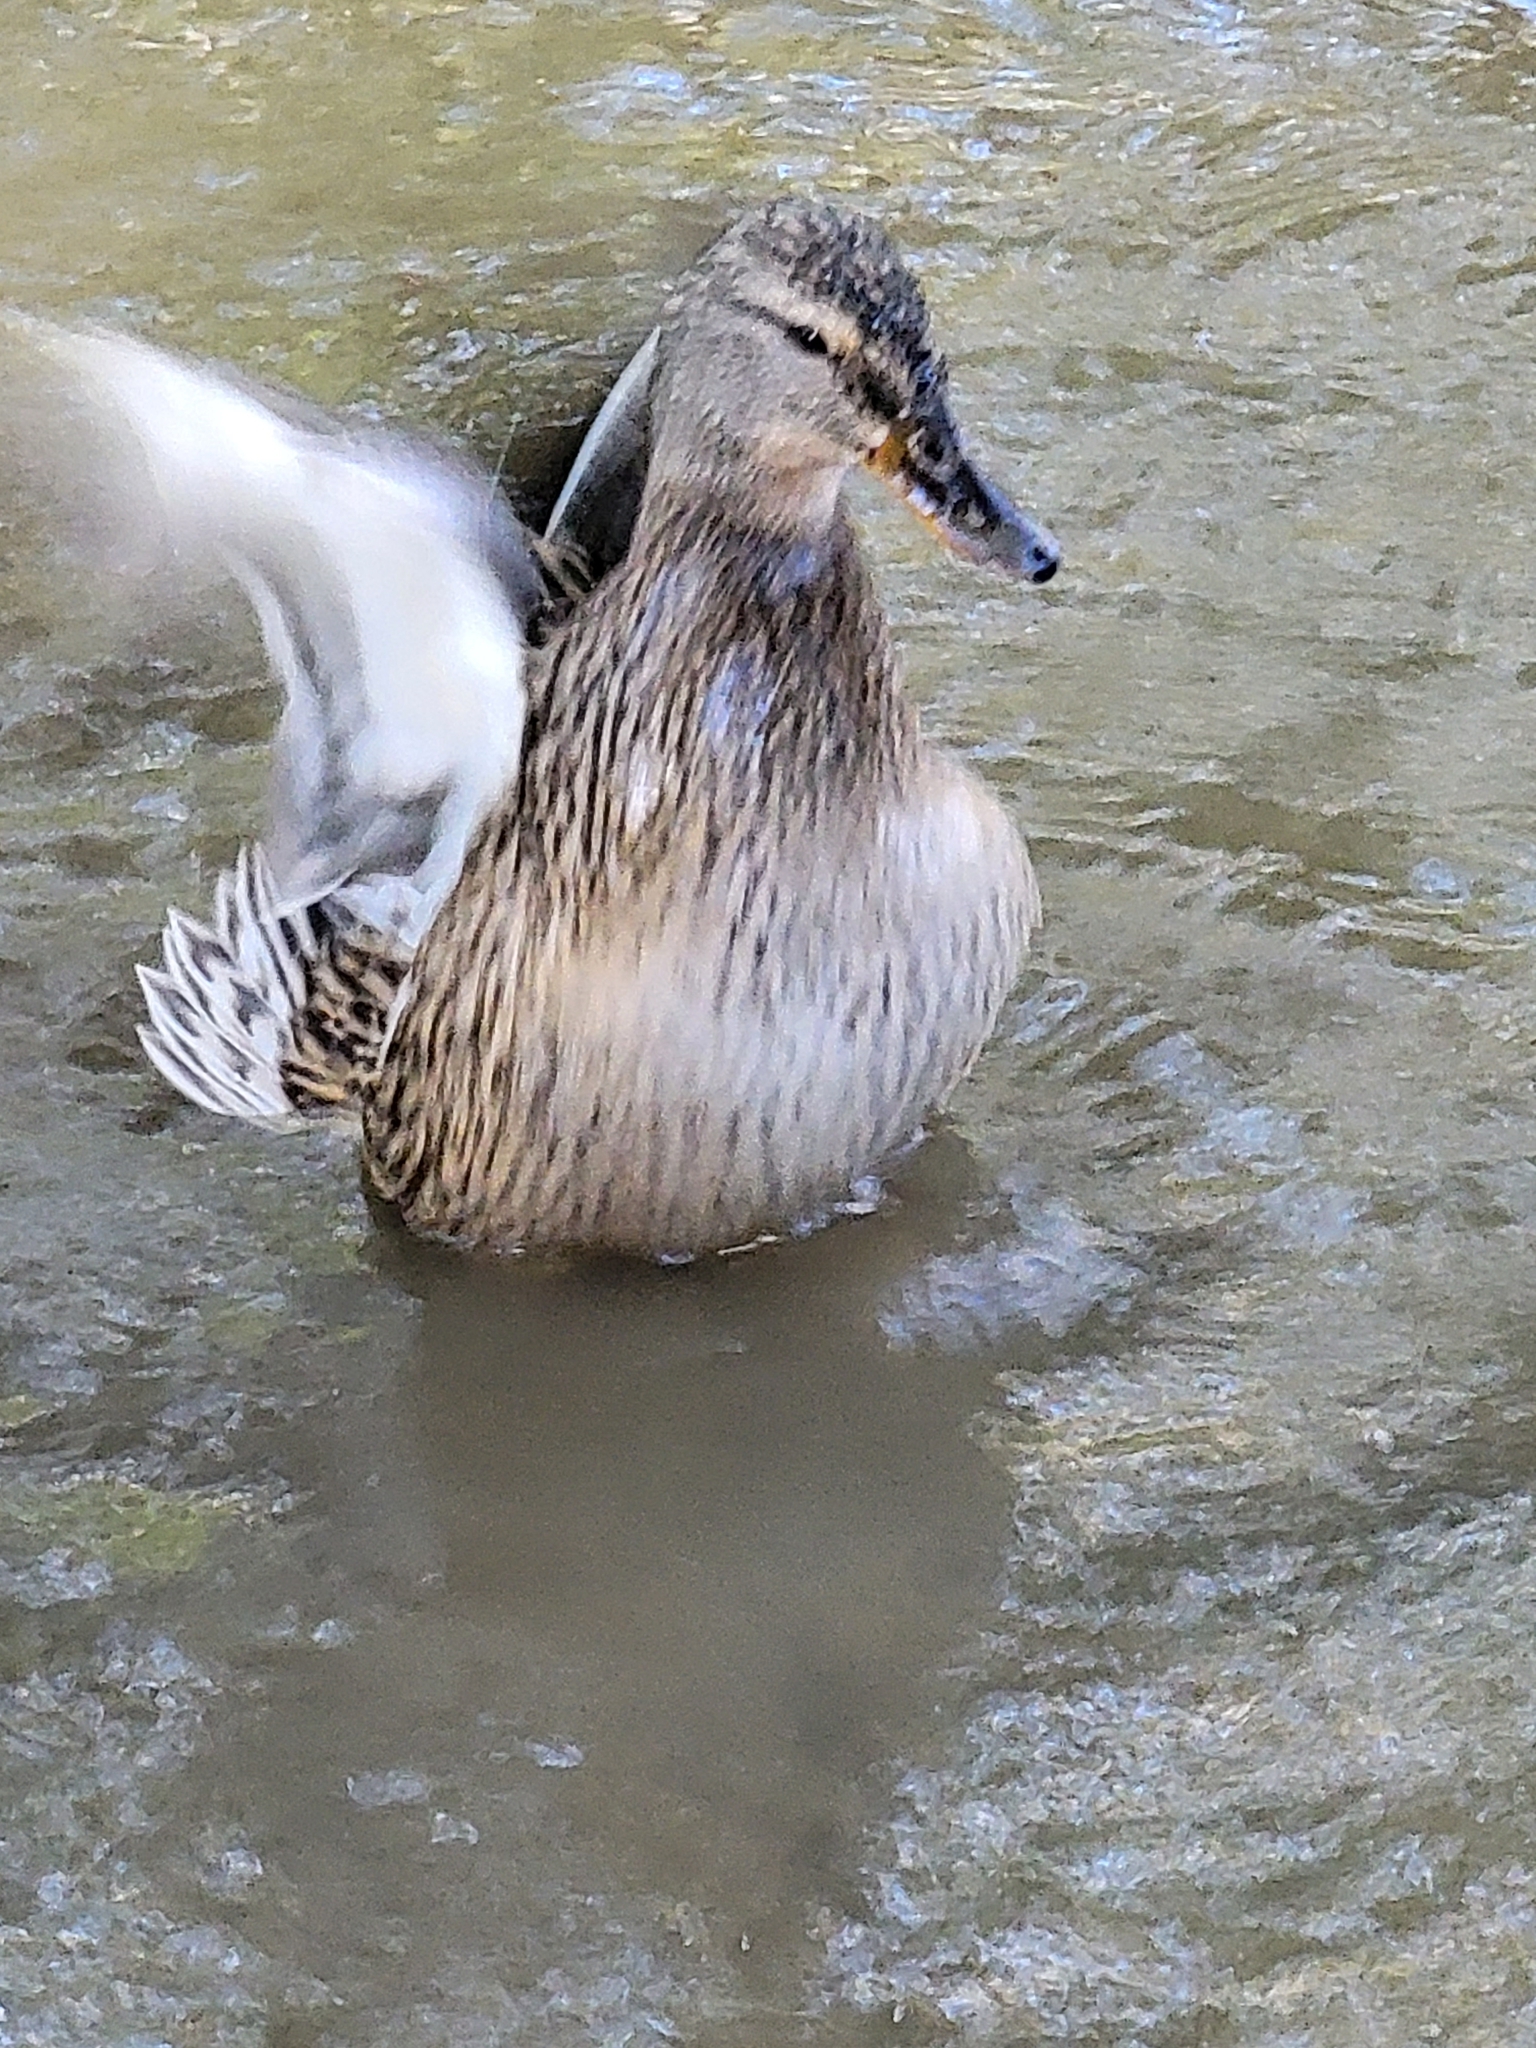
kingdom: Animalia
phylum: Chordata
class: Aves
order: Anseriformes
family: Anatidae
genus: Anas
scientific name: Anas platyrhynchos
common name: Mallard
